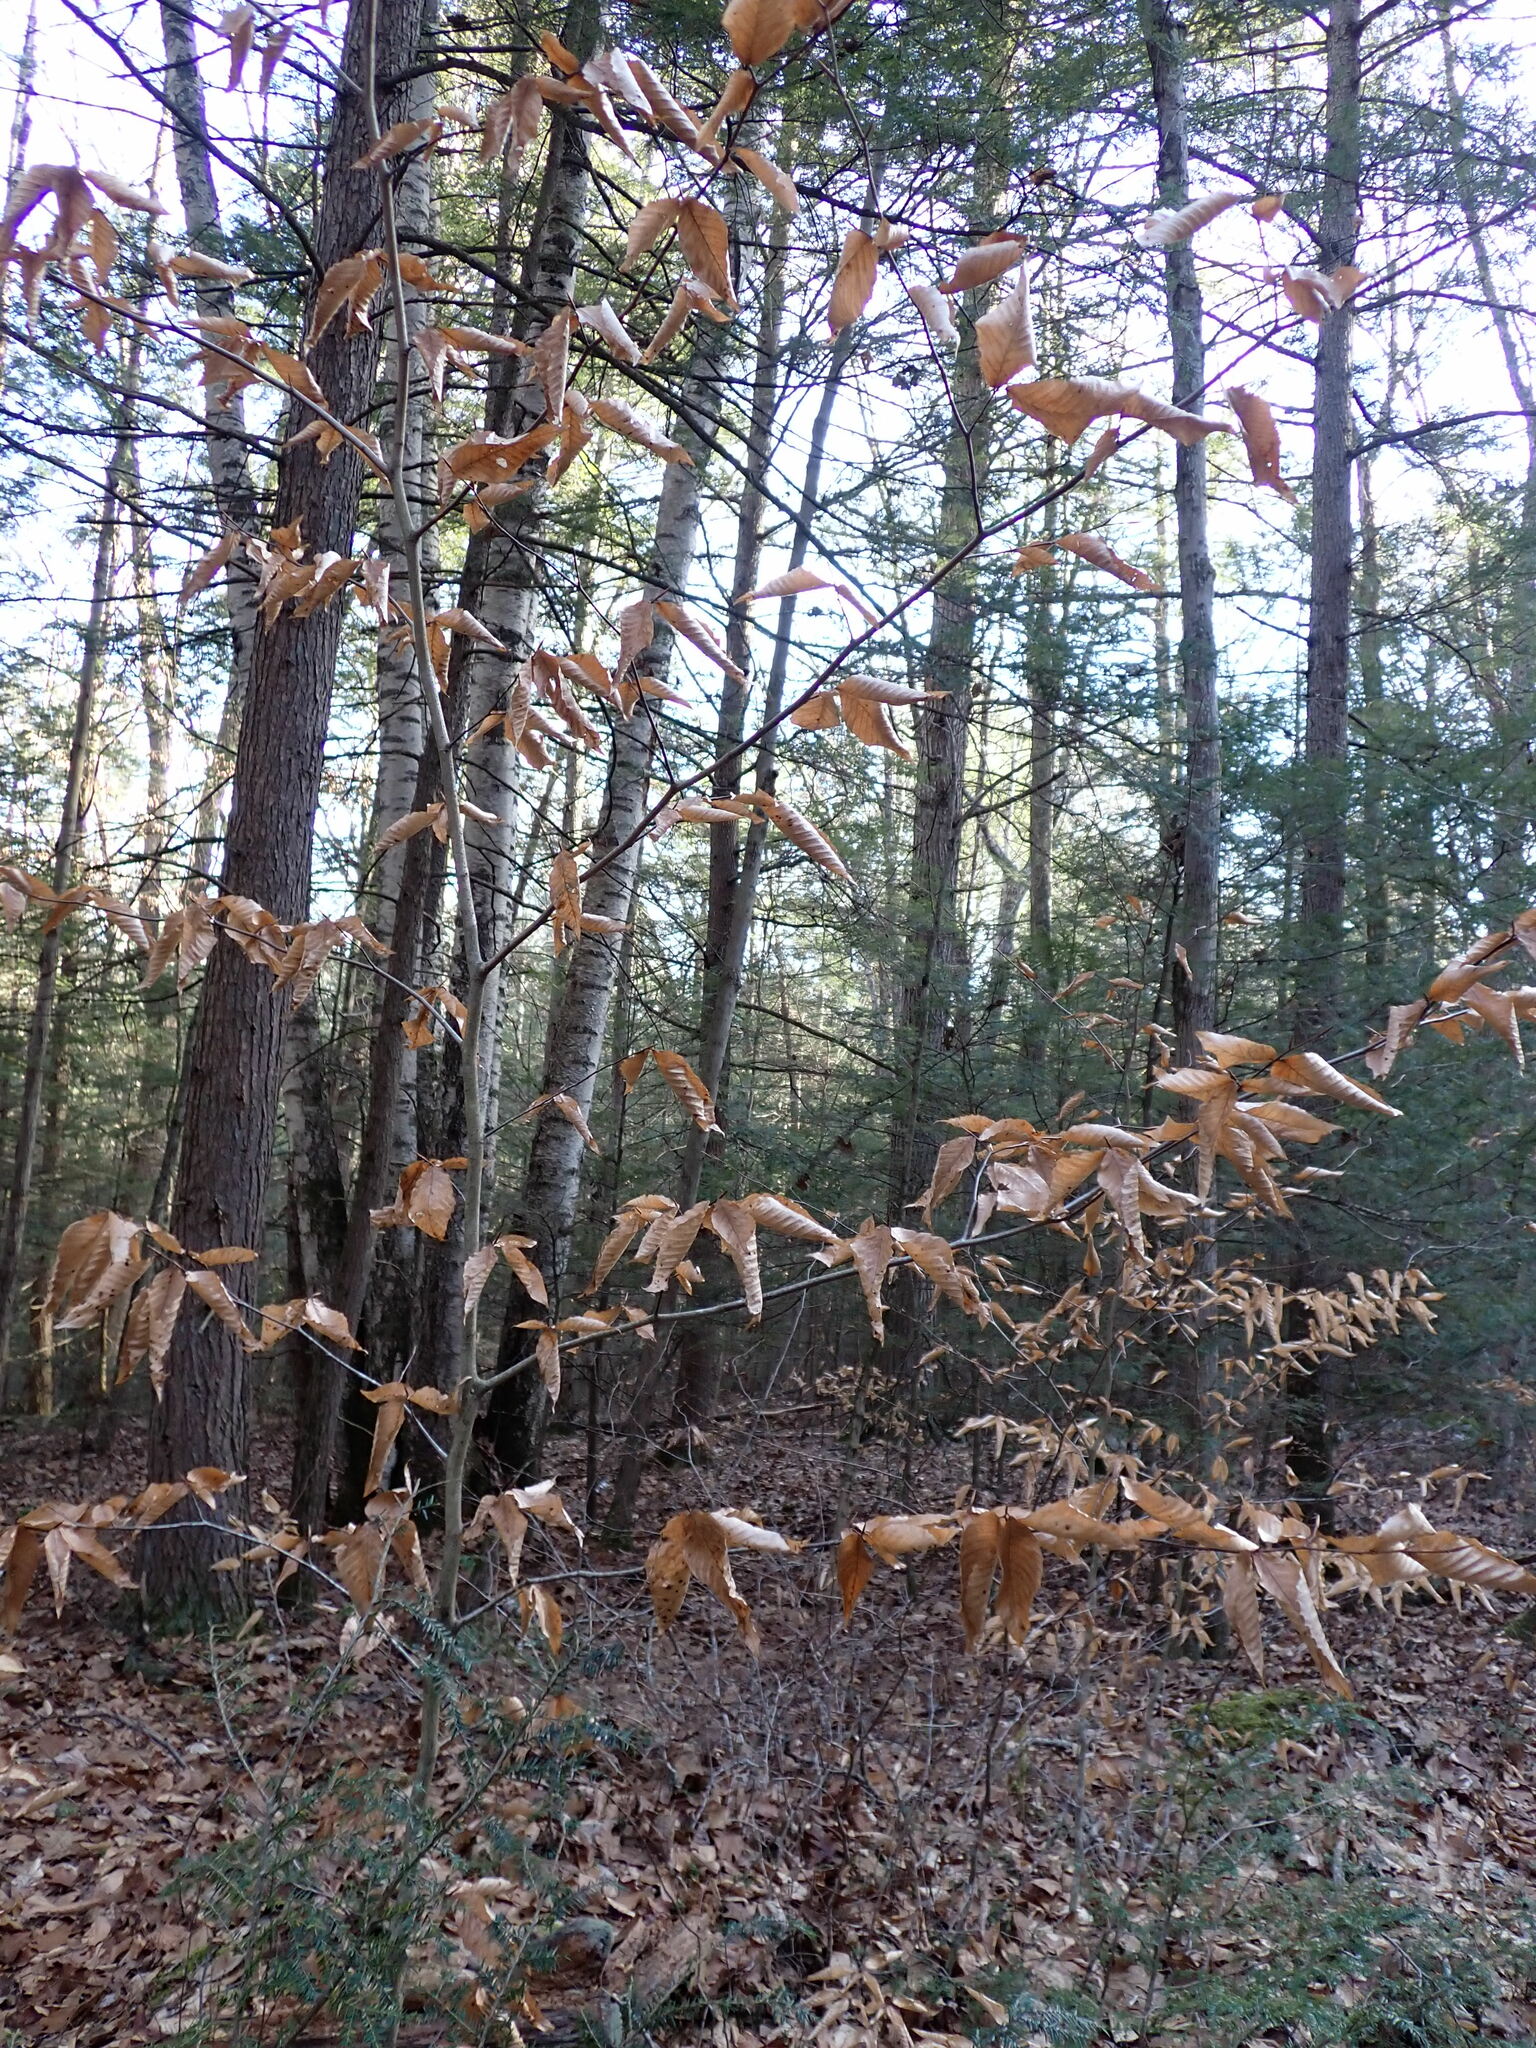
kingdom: Plantae
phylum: Tracheophyta
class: Magnoliopsida
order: Fagales
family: Fagaceae
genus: Fagus
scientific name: Fagus grandifolia
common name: American beech
